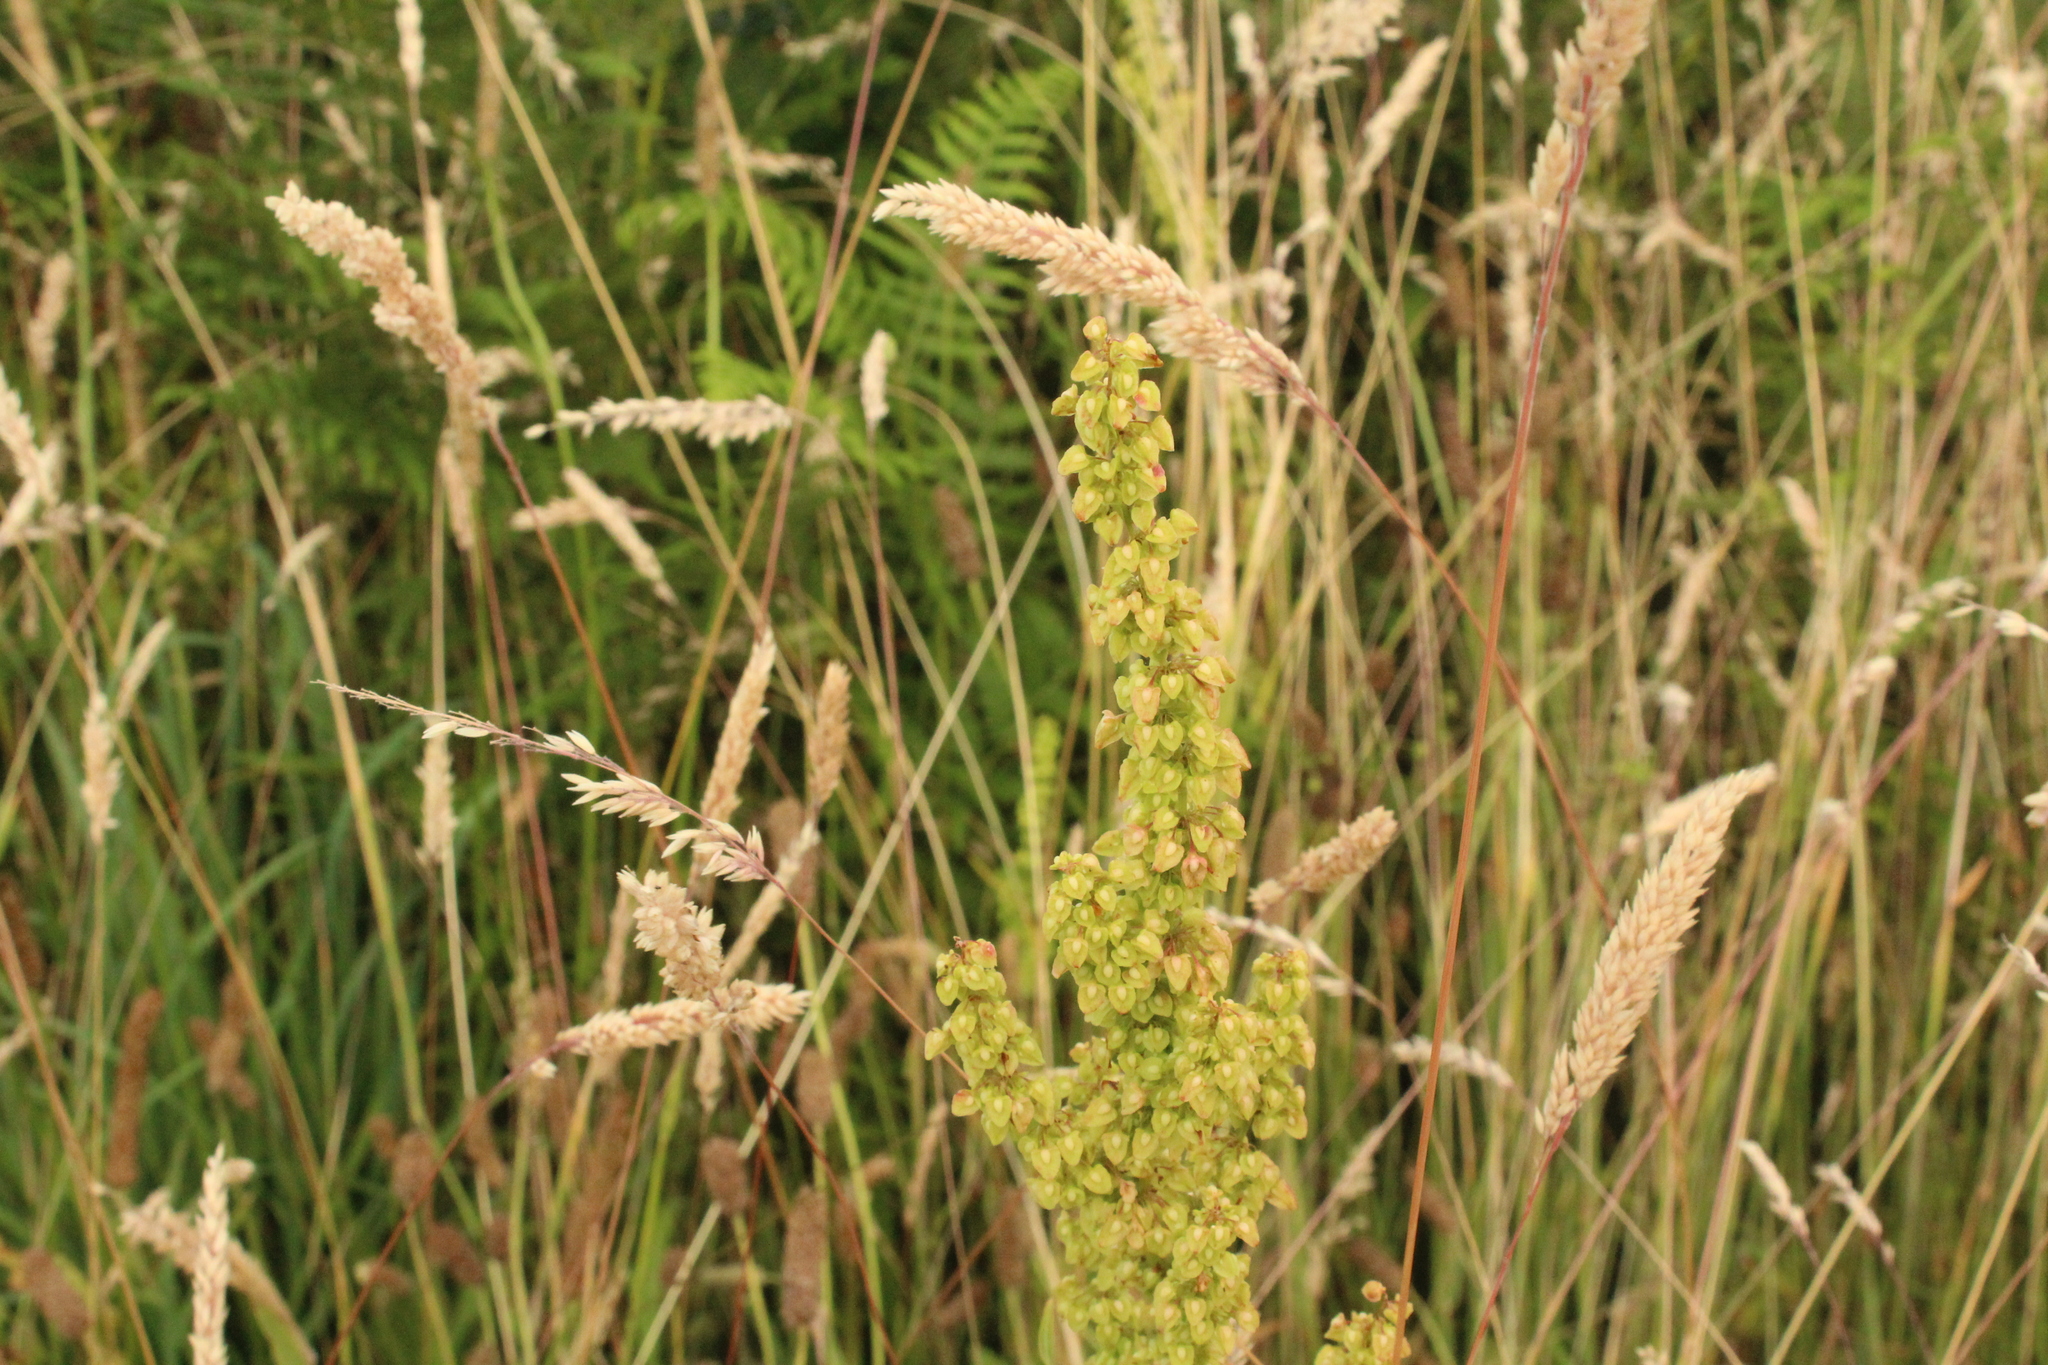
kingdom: Plantae
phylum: Tracheophyta
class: Magnoliopsida
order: Caryophyllales
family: Polygonaceae
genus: Rumex
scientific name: Rumex crispus
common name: Curled dock
